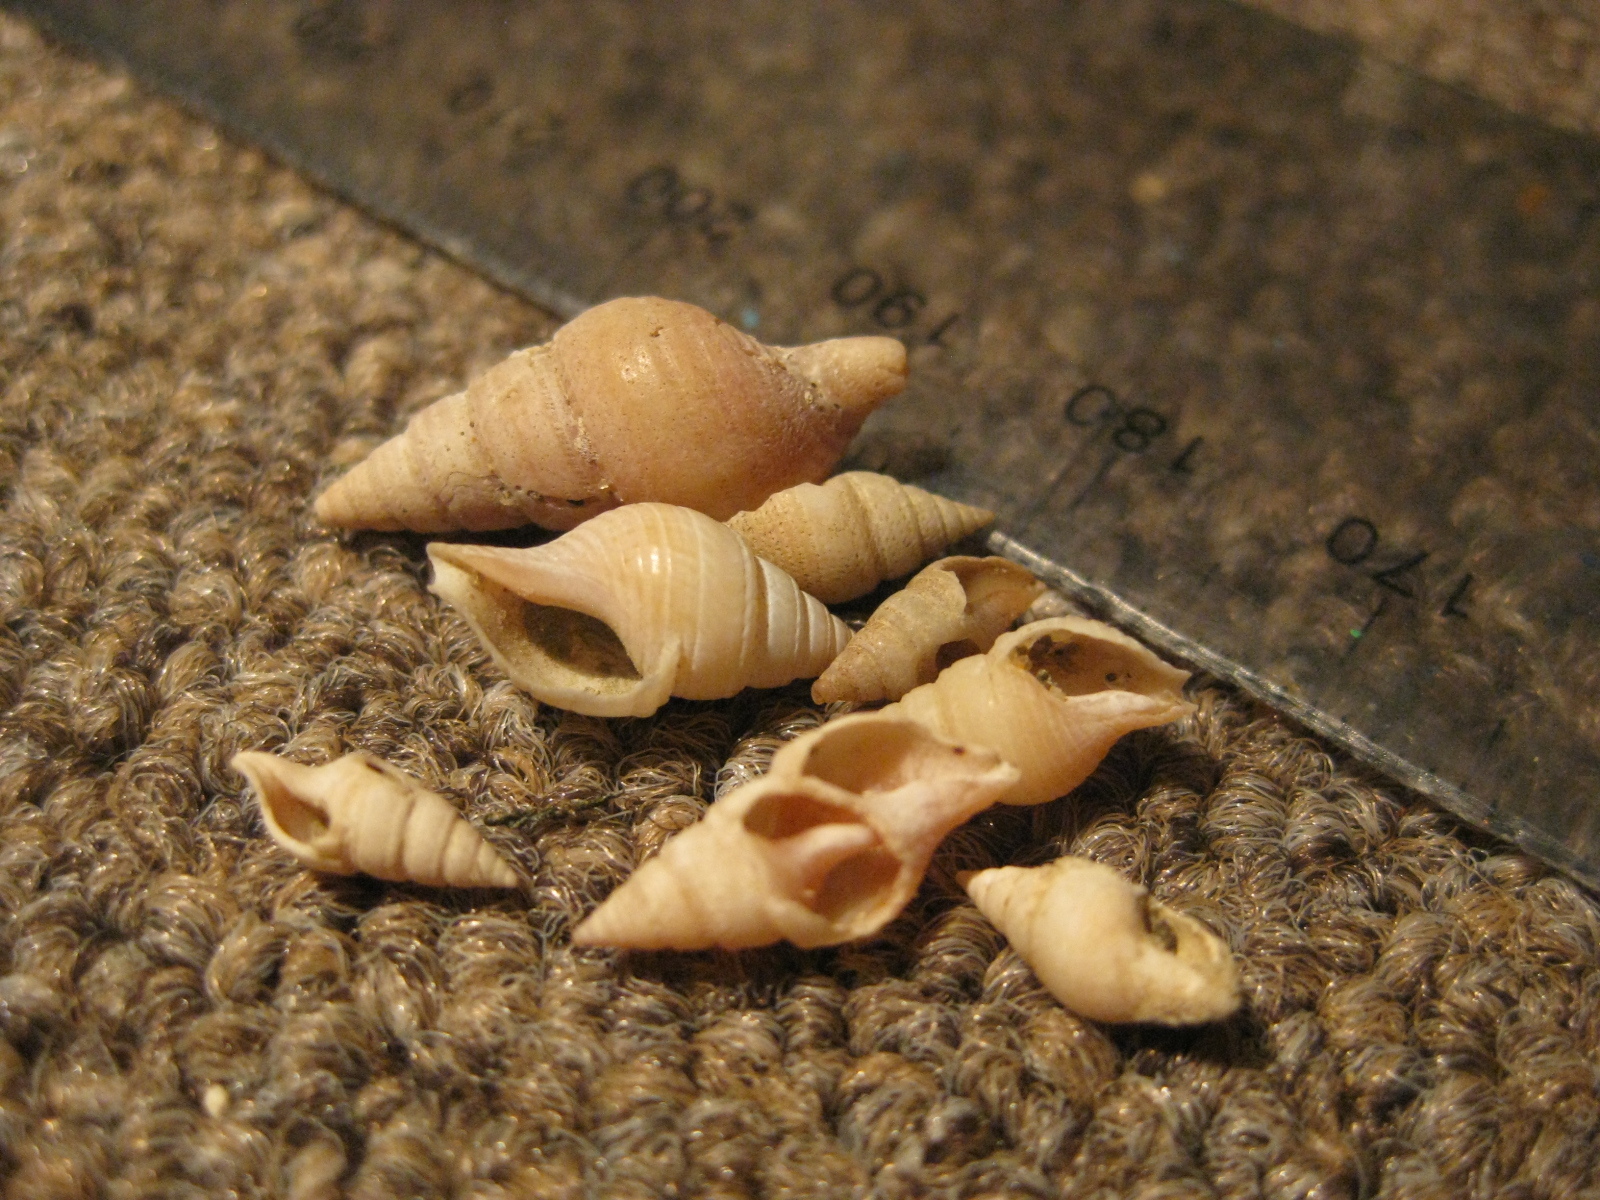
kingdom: Animalia
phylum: Mollusca
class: Gastropoda
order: Neogastropoda
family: Borsoniidae
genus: Phenatoma
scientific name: Phenatoma zealandicum
